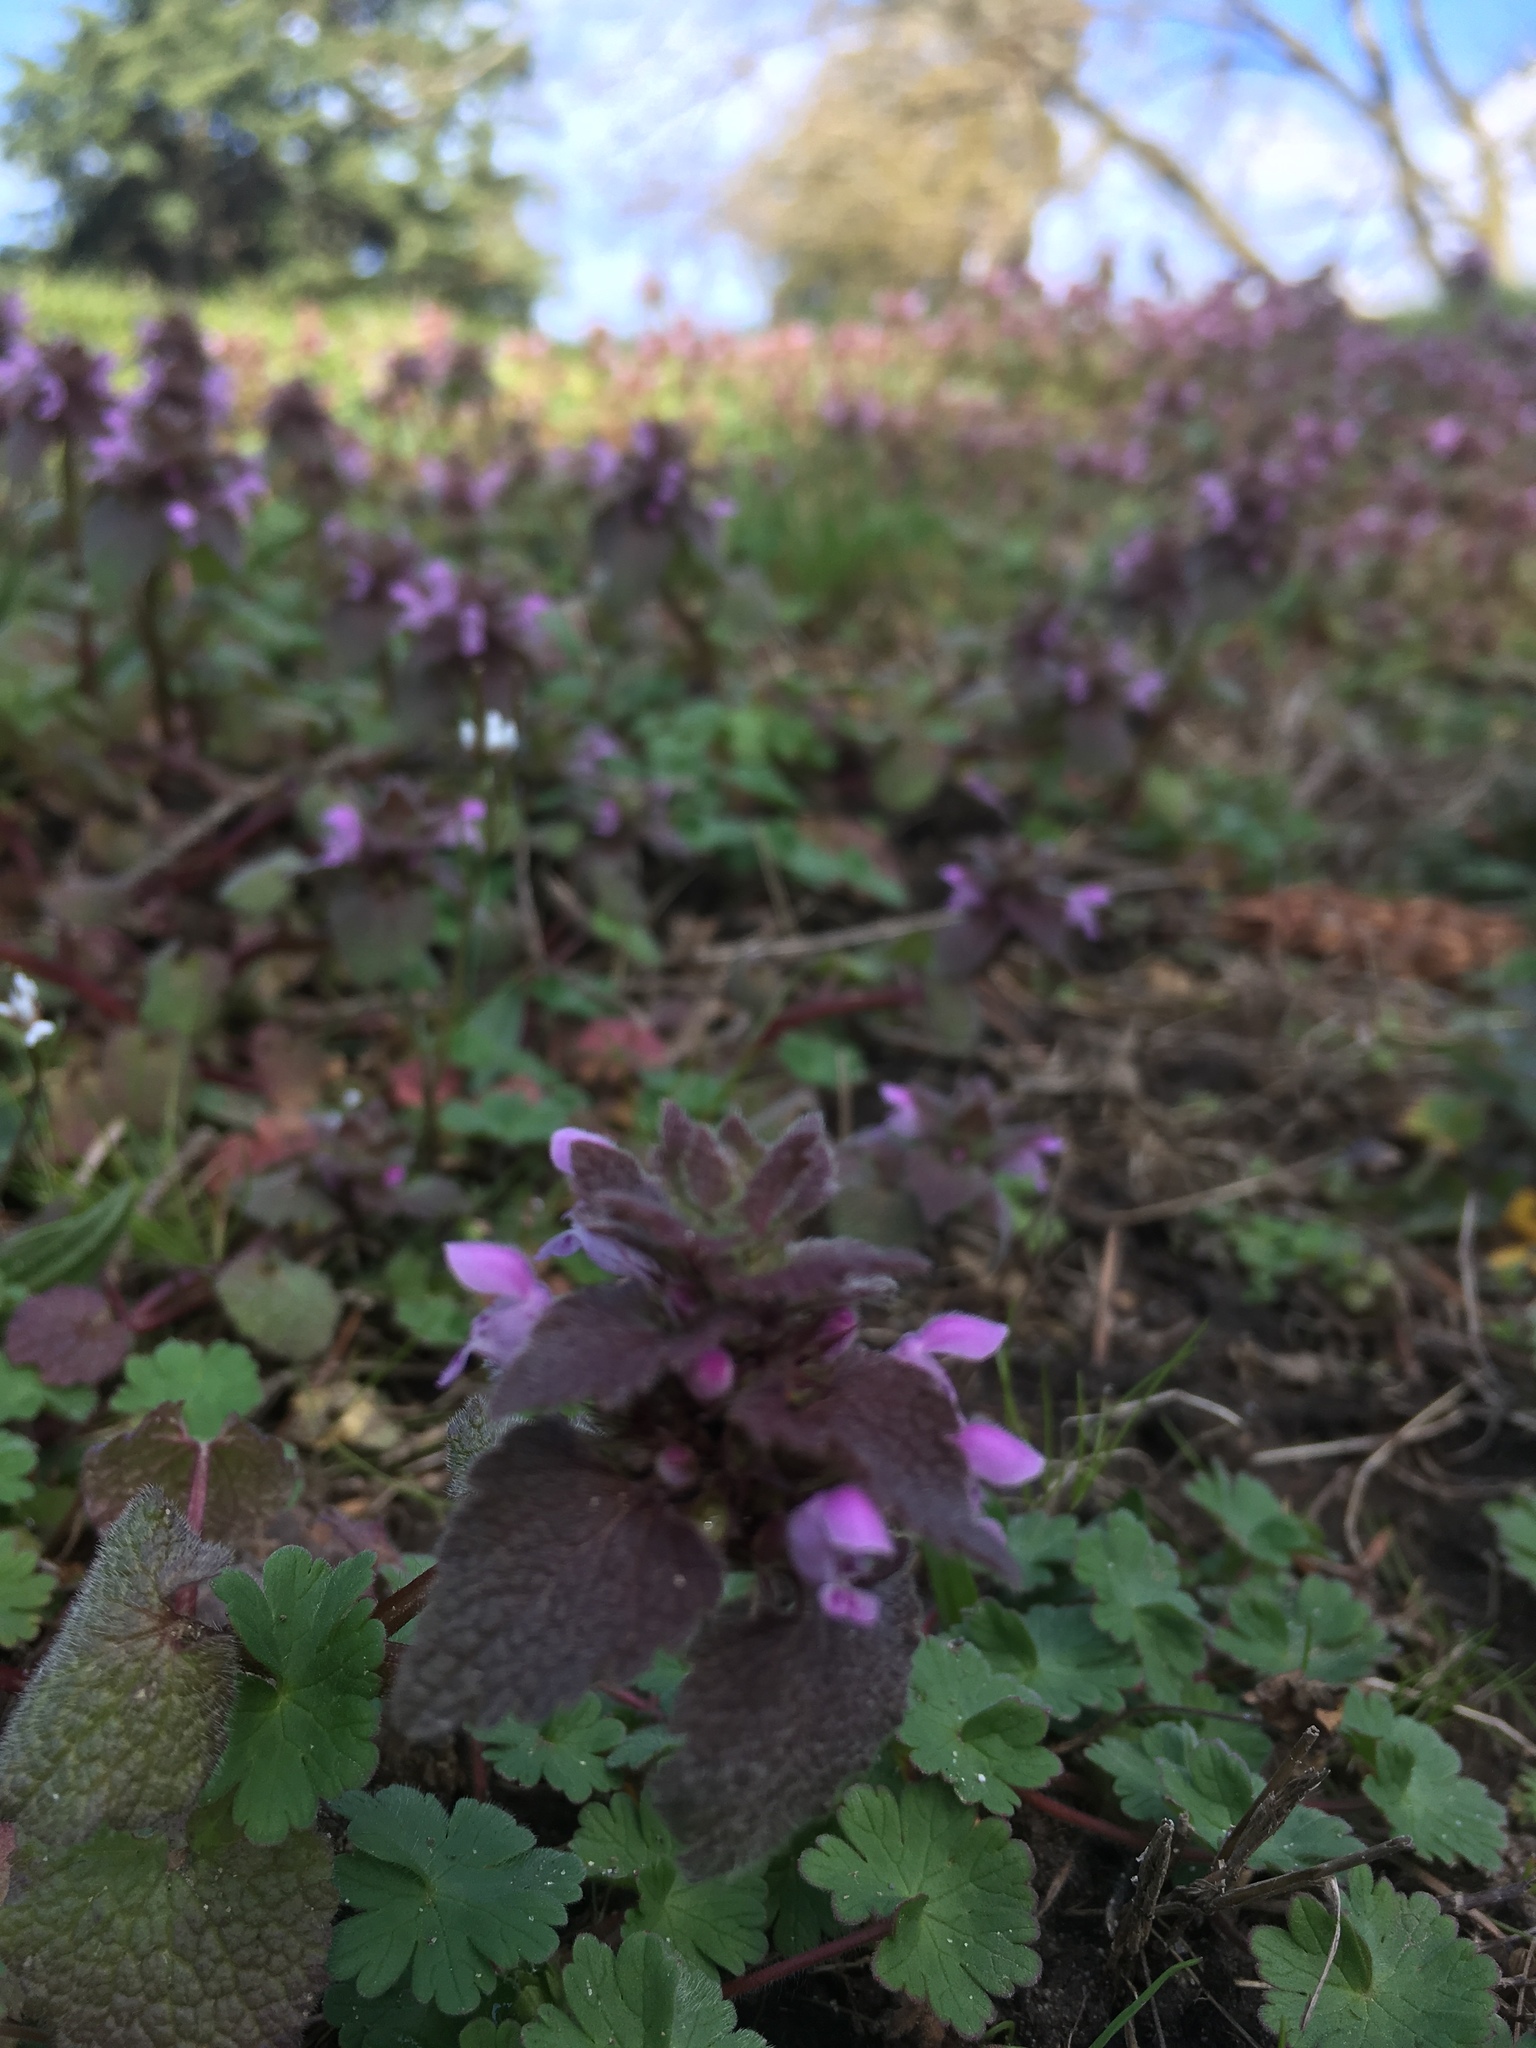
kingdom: Plantae
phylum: Tracheophyta
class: Magnoliopsida
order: Lamiales
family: Lamiaceae
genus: Lamium
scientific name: Lamium purpureum
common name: Red dead-nettle
